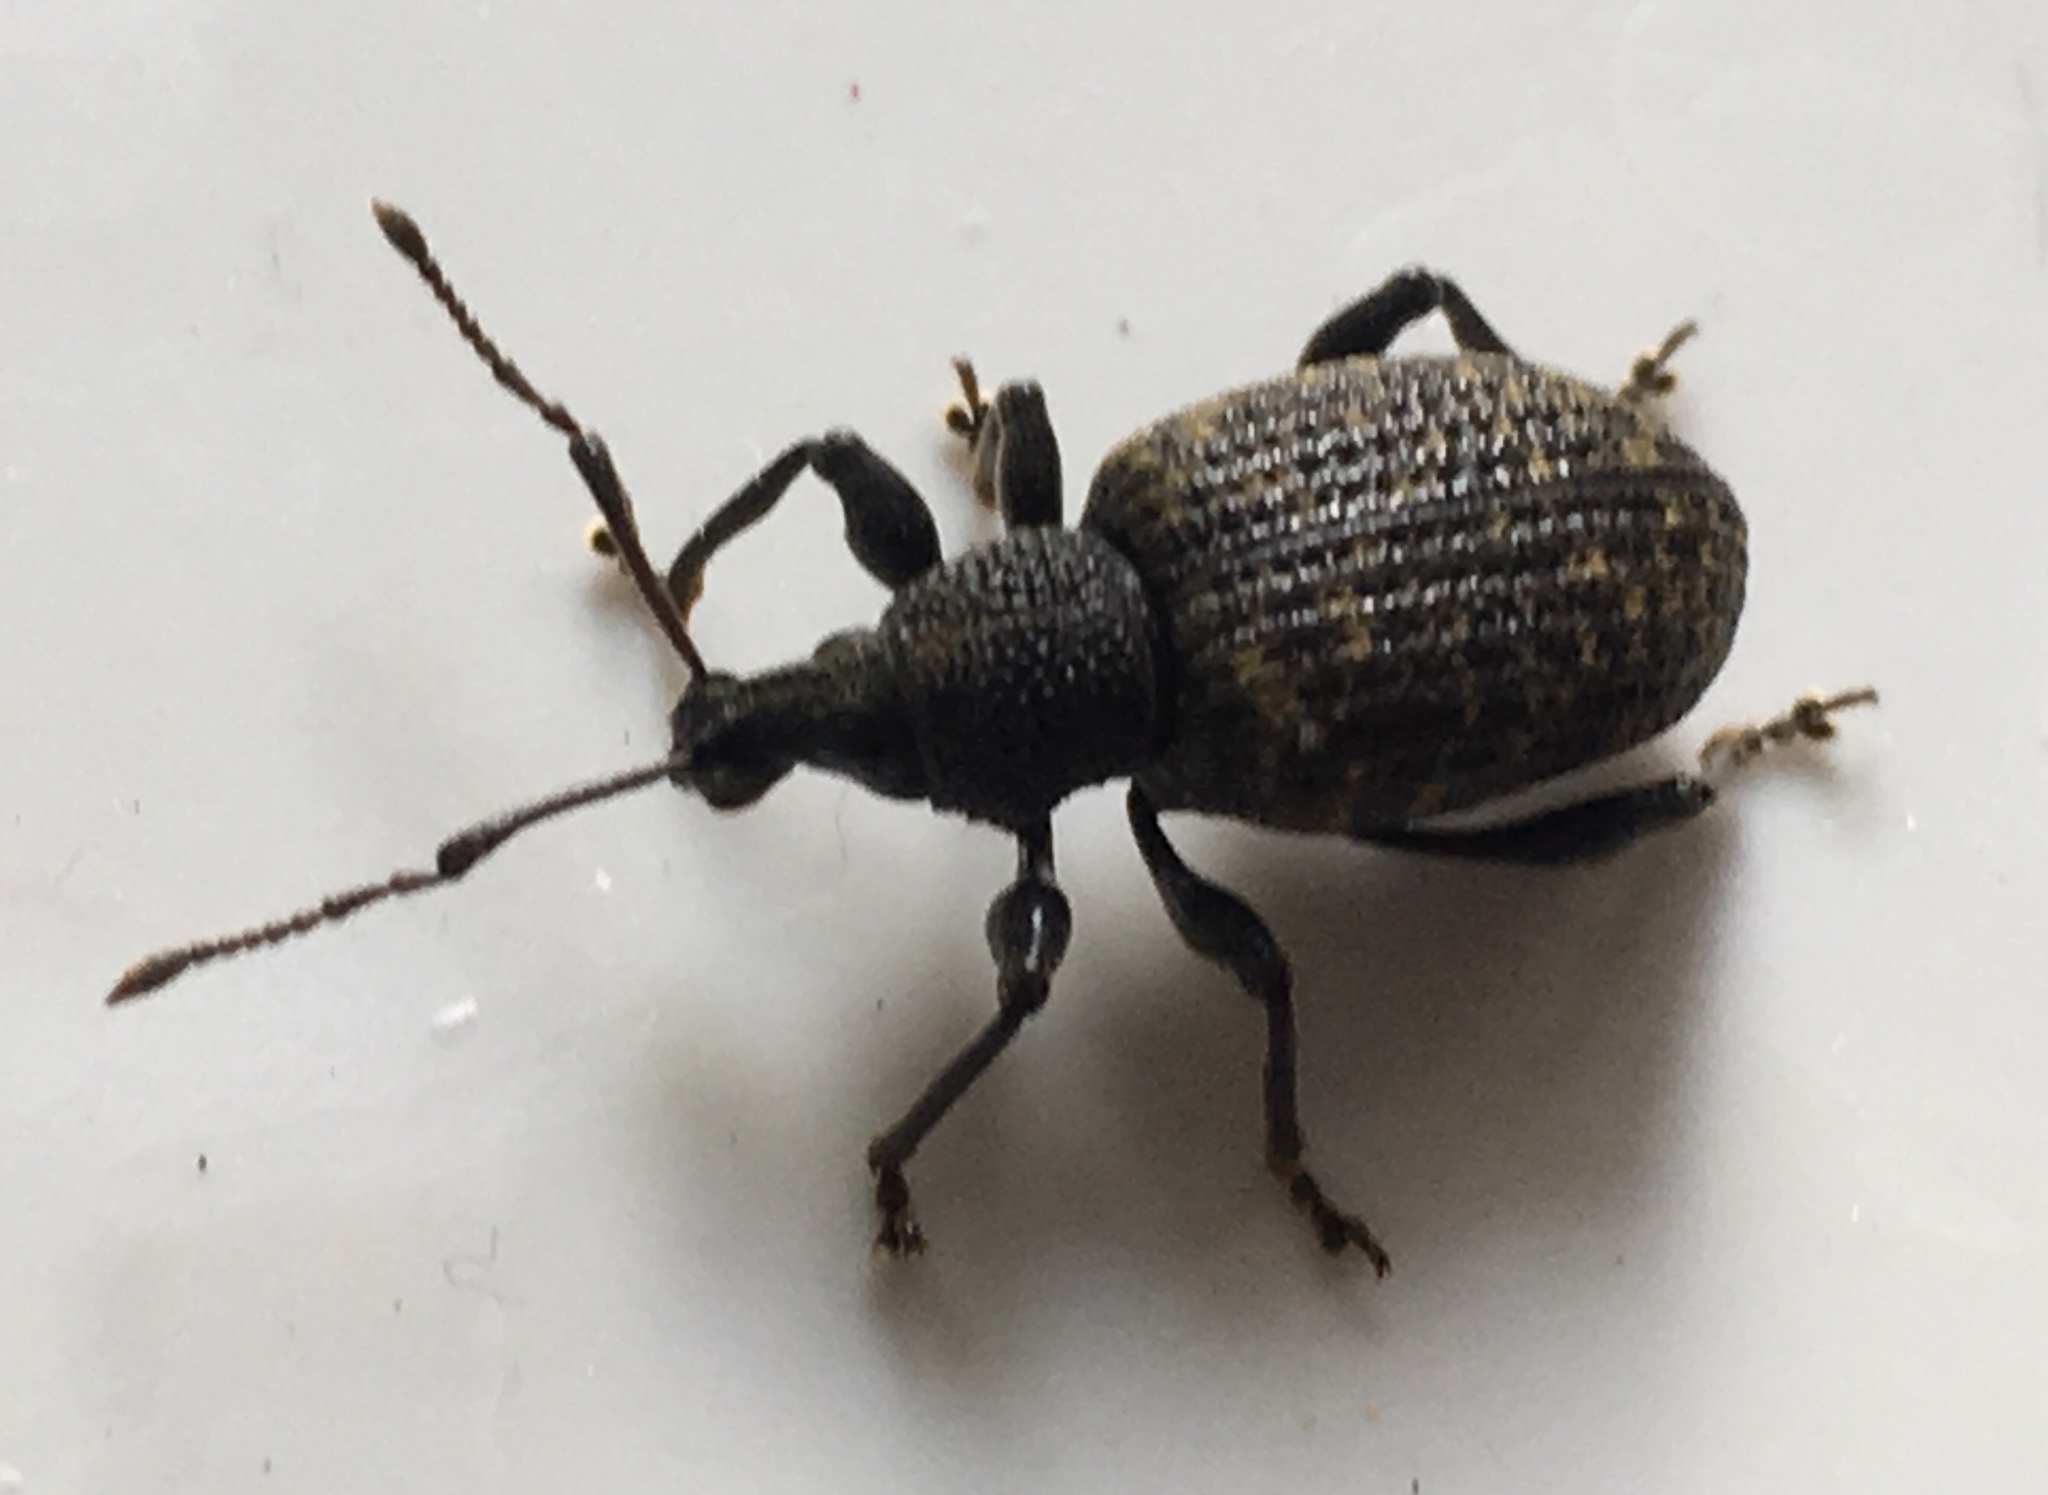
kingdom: Animalia
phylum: Arthropoda
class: Insecta
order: Coleoptera
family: Curculionidae
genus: Otiorhynchus
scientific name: Otiorhynchus sulcatus
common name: Black vine weevil
